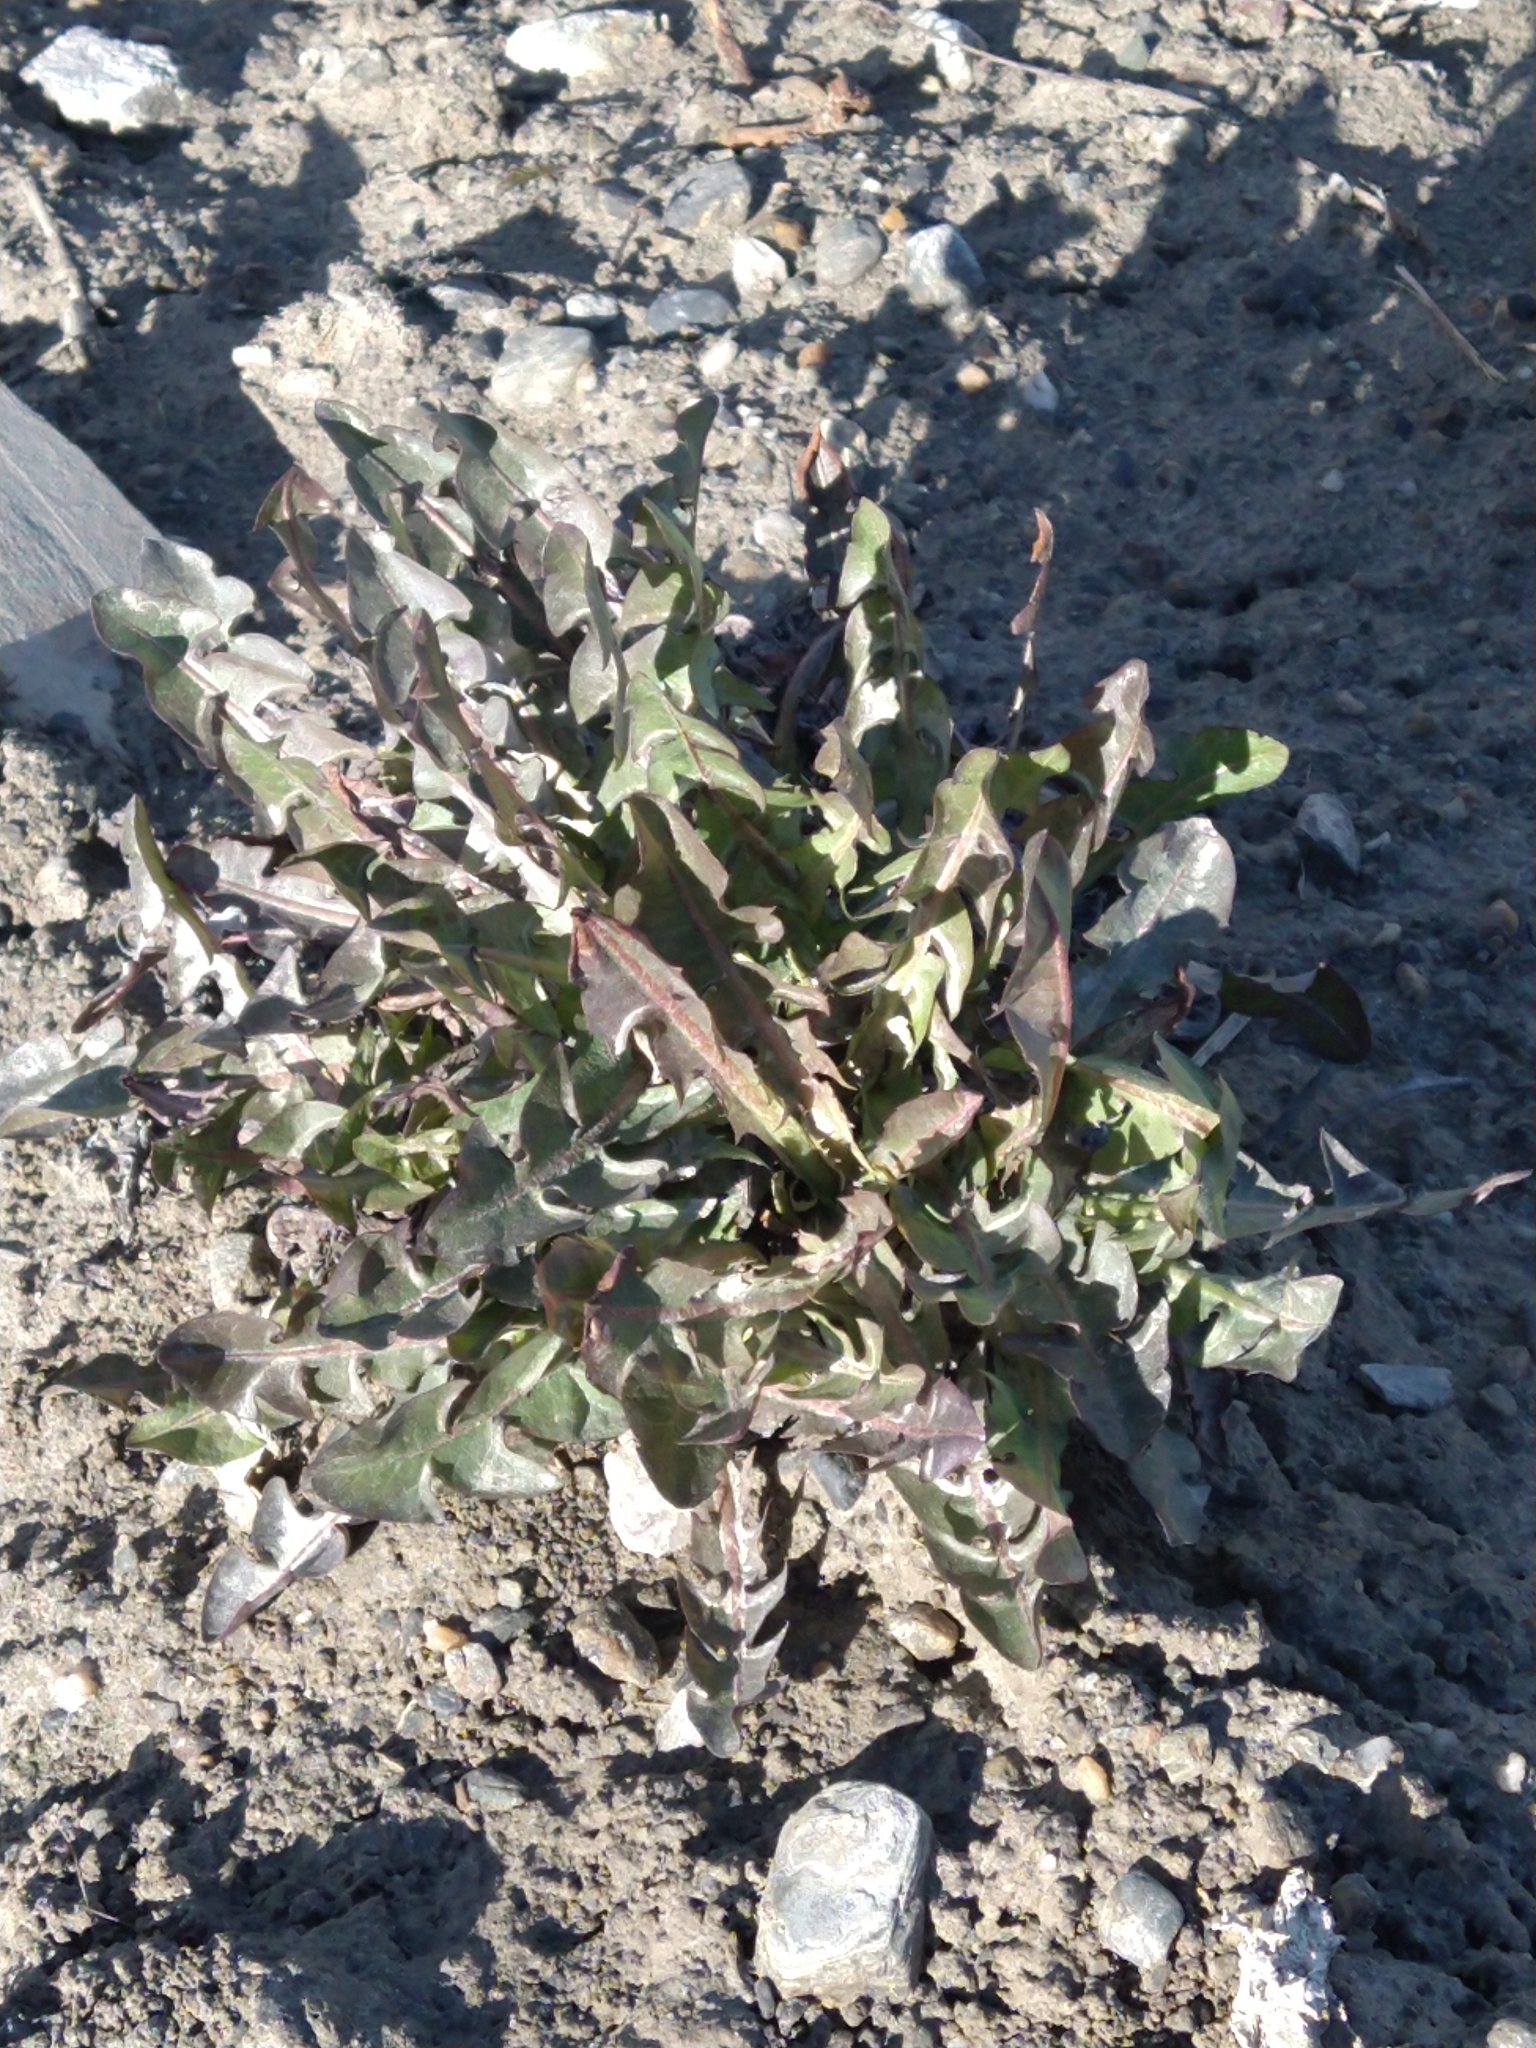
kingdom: Plantae
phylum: Tracheophyta
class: Magnoliopsida
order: Asterales
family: Asteraceae
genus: Taraxacum
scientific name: Taraxacum officinale
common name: Common dandelion
